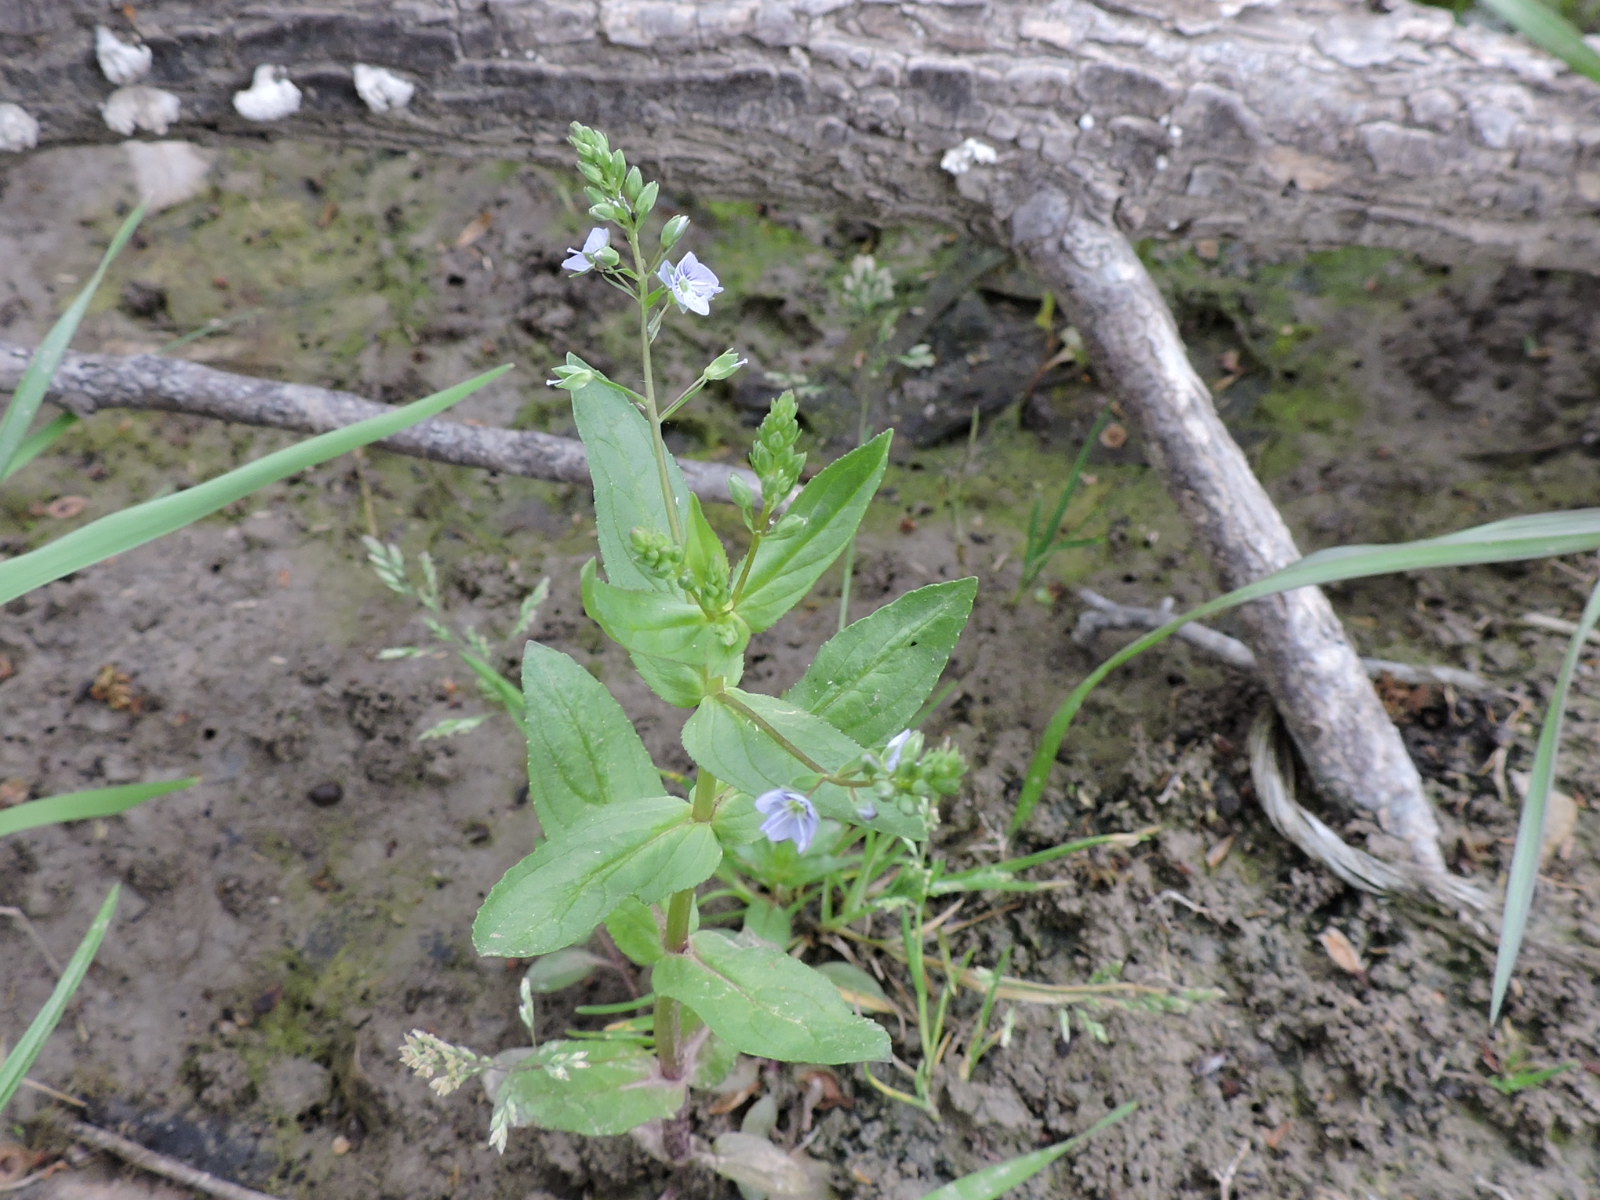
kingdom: Plantae
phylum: Tracheophyta
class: Magnoliopsida
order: Lamiales
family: Plantaginaceae
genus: Veronica
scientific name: Veronica anagallis-aquatica
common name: Water speedwell
